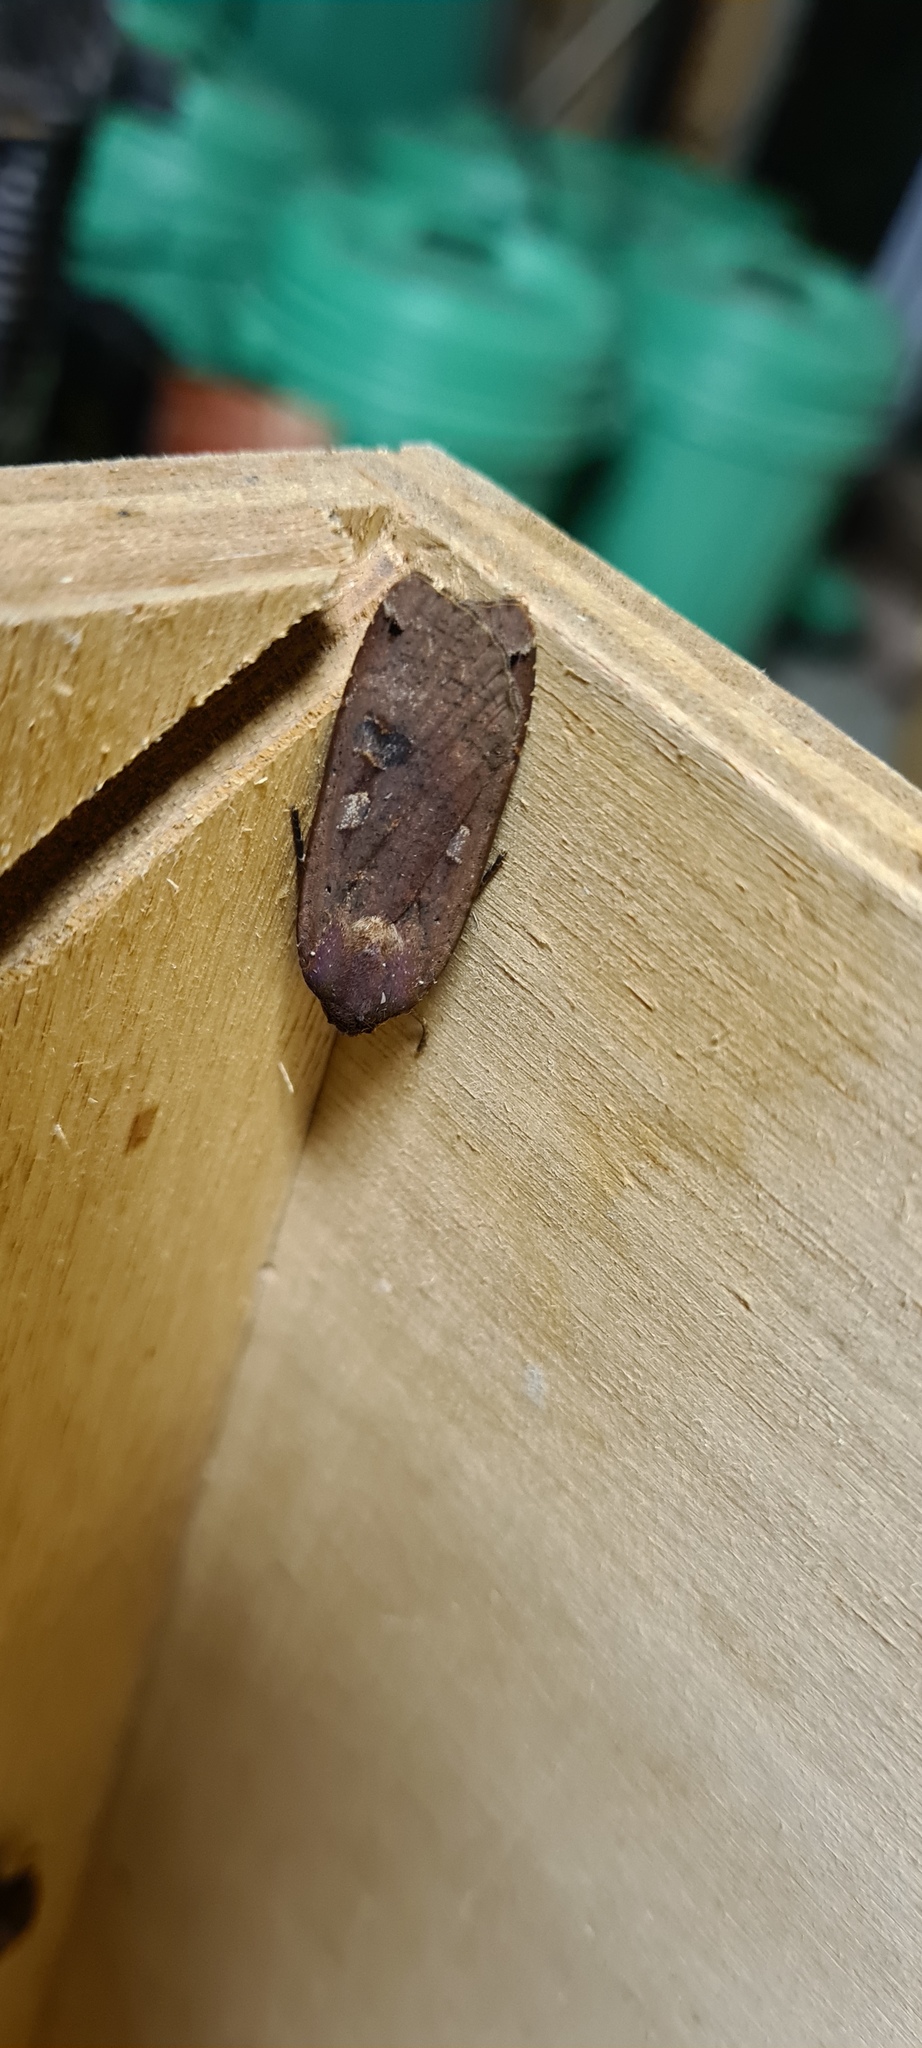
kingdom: Animalia
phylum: Arthropoda
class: Insecta
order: Lepidoptera
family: Noctuidae
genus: Noctua
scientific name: Noctua pronuba
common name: Large yellow underwing
